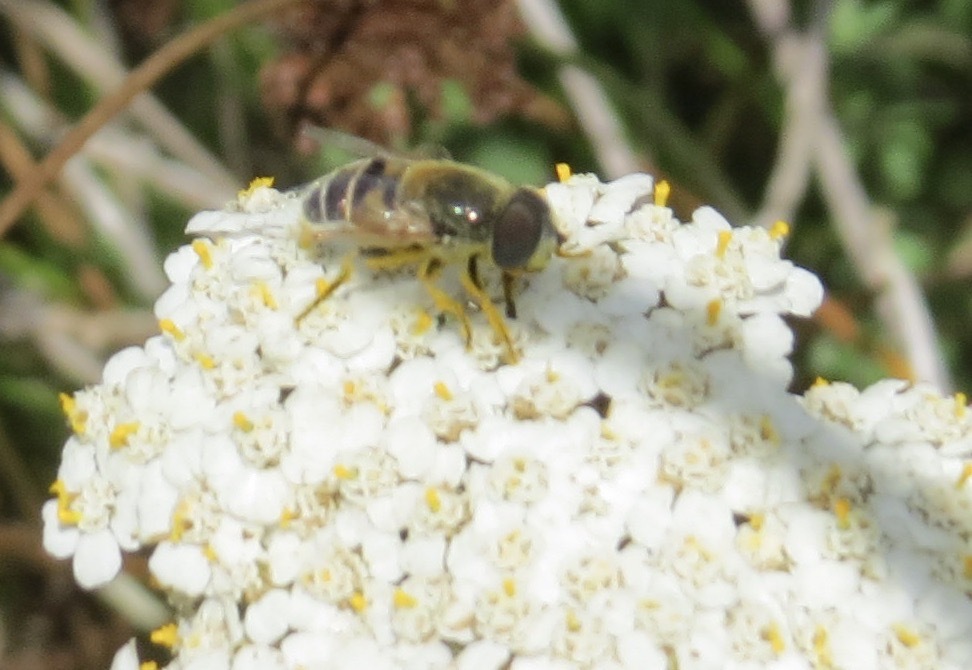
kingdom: Animalia
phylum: Arthropoda
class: Insecta
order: Diptera
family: Syrphidae
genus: Eristalis
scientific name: Eristalis stipator
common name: Yellow-shouldered drone fly
